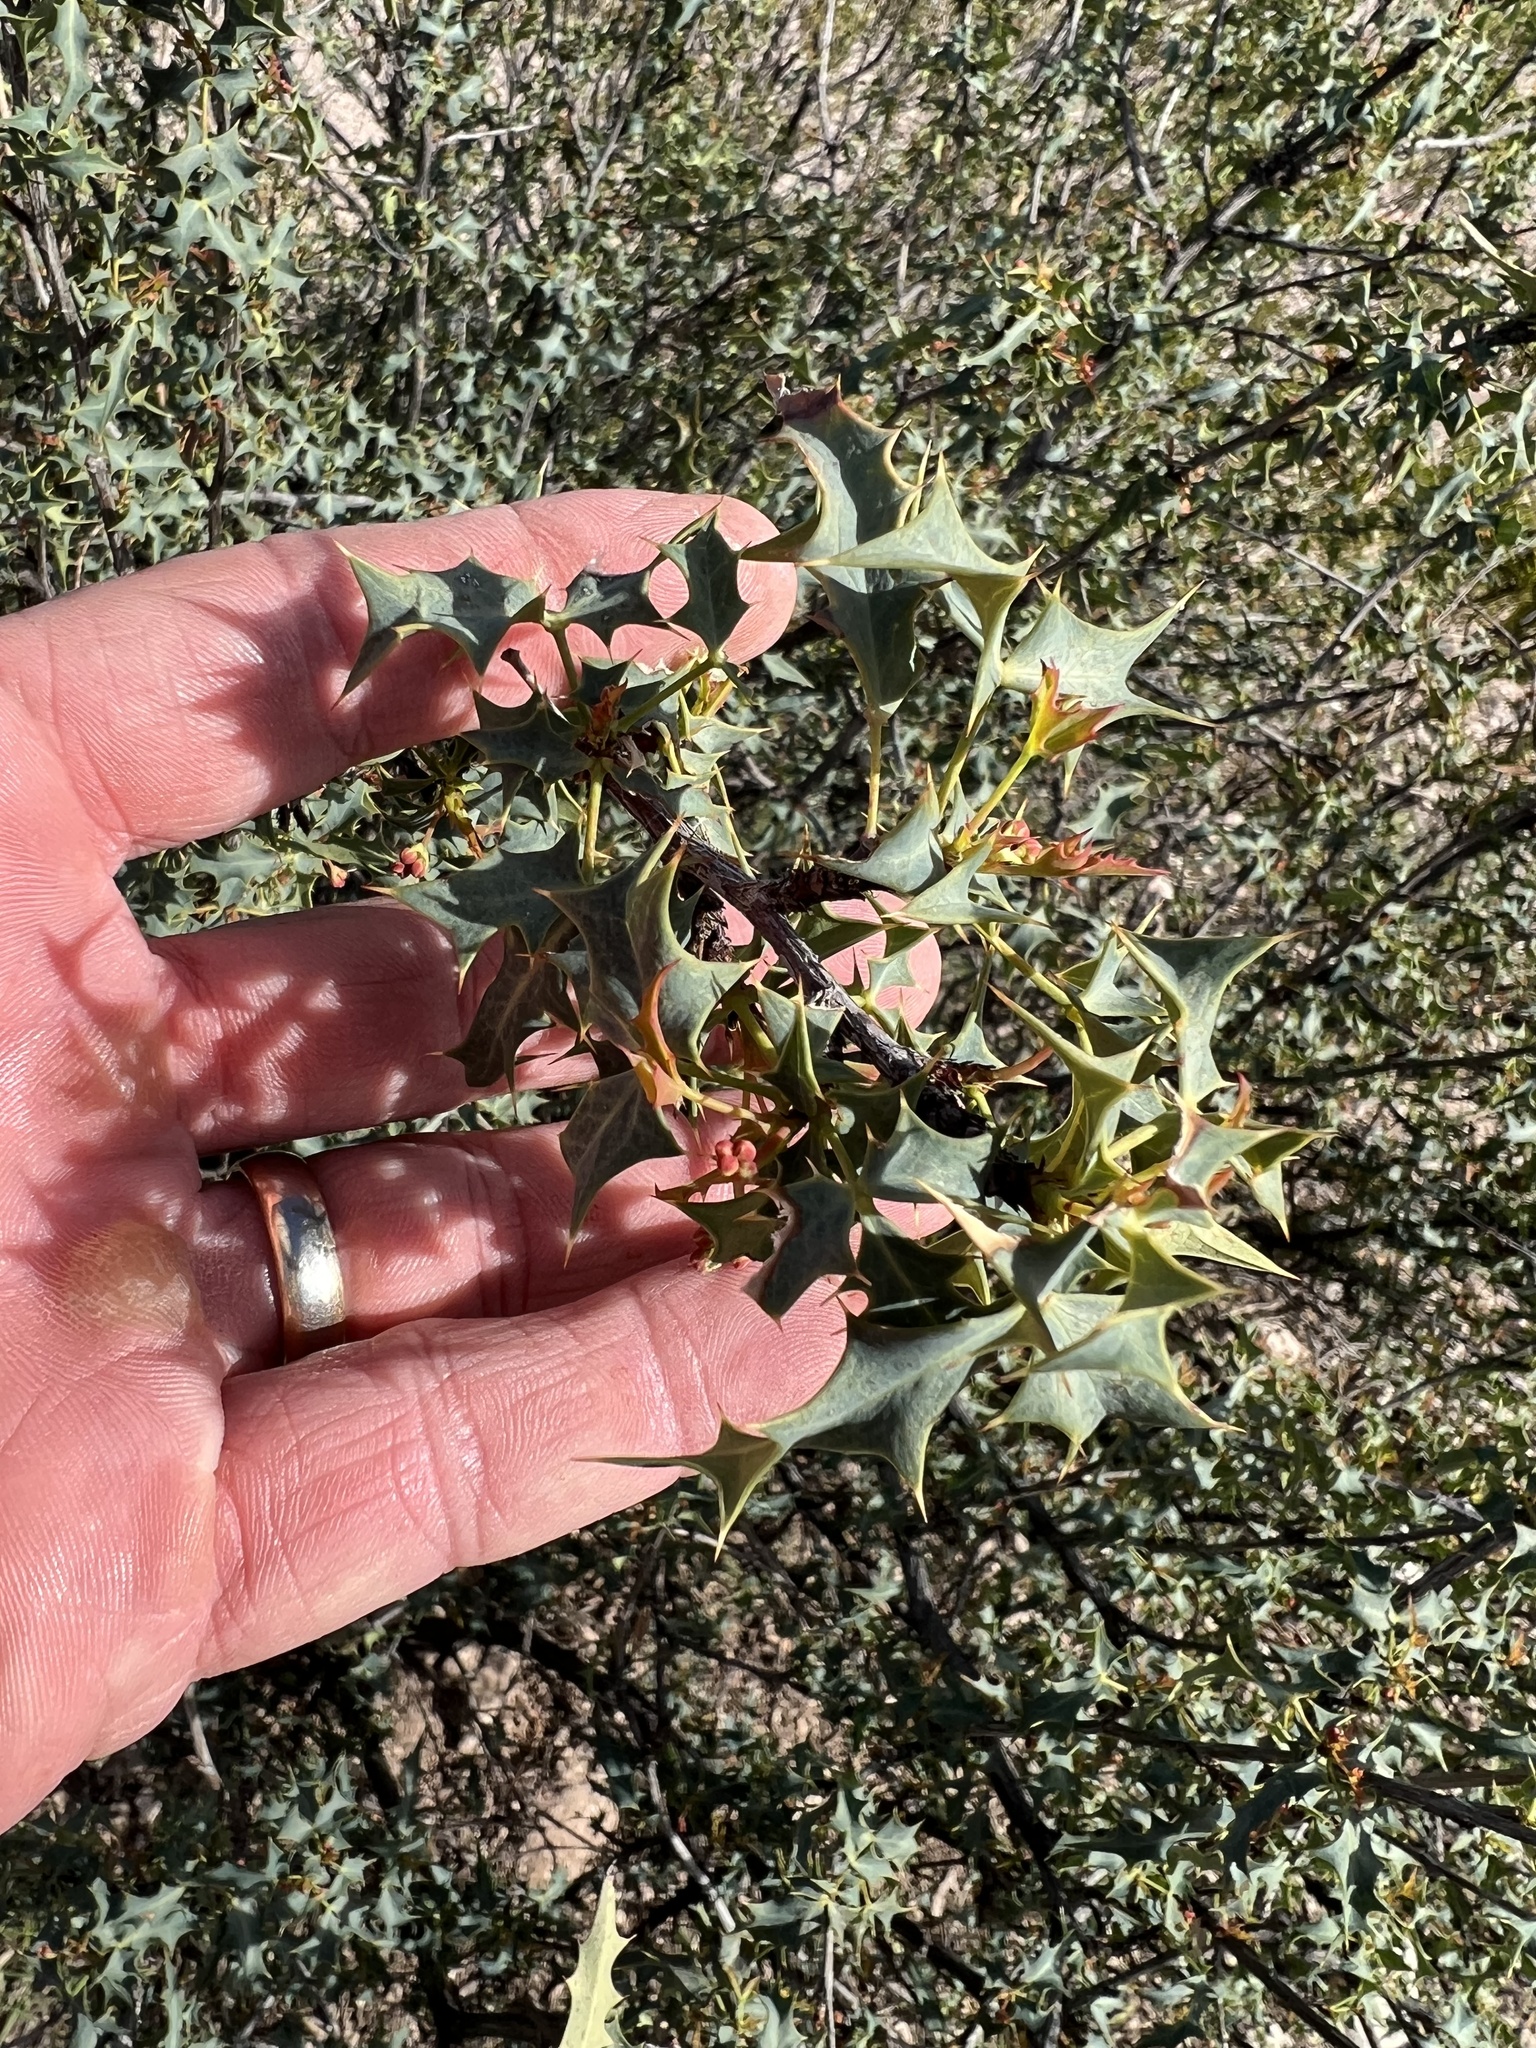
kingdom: Plantae
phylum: Tracheophyta
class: Magnoliopsida
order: Ranunculales
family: Berberidaceae
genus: Alloberberis
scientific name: Alloberberis haematocarpa
